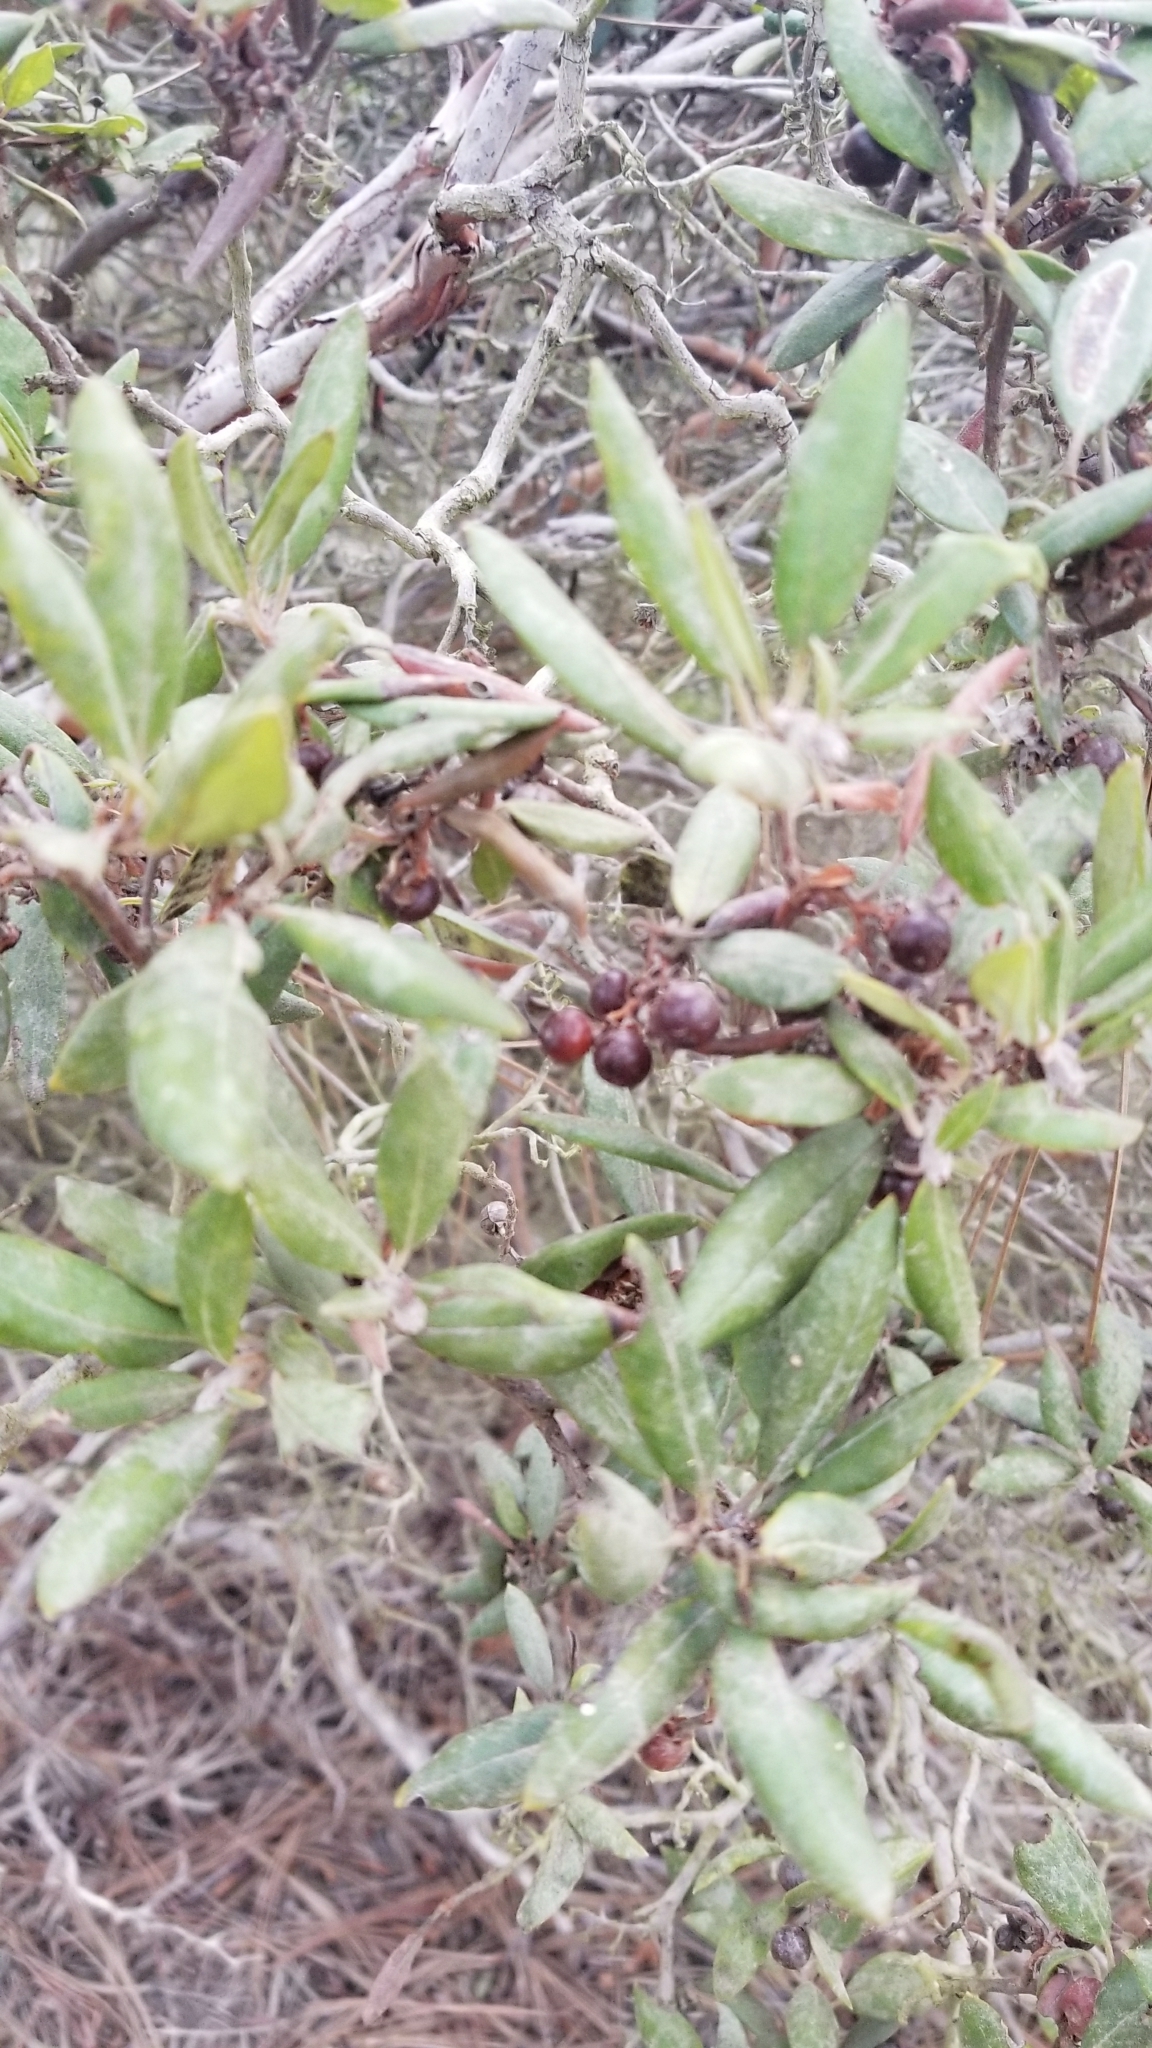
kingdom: Plantae
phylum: Tracheophyta
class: Magnoliopsida
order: Ericales
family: Ericaceae
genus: Arctostaphylos
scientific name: Arctostaphylos bicolor
